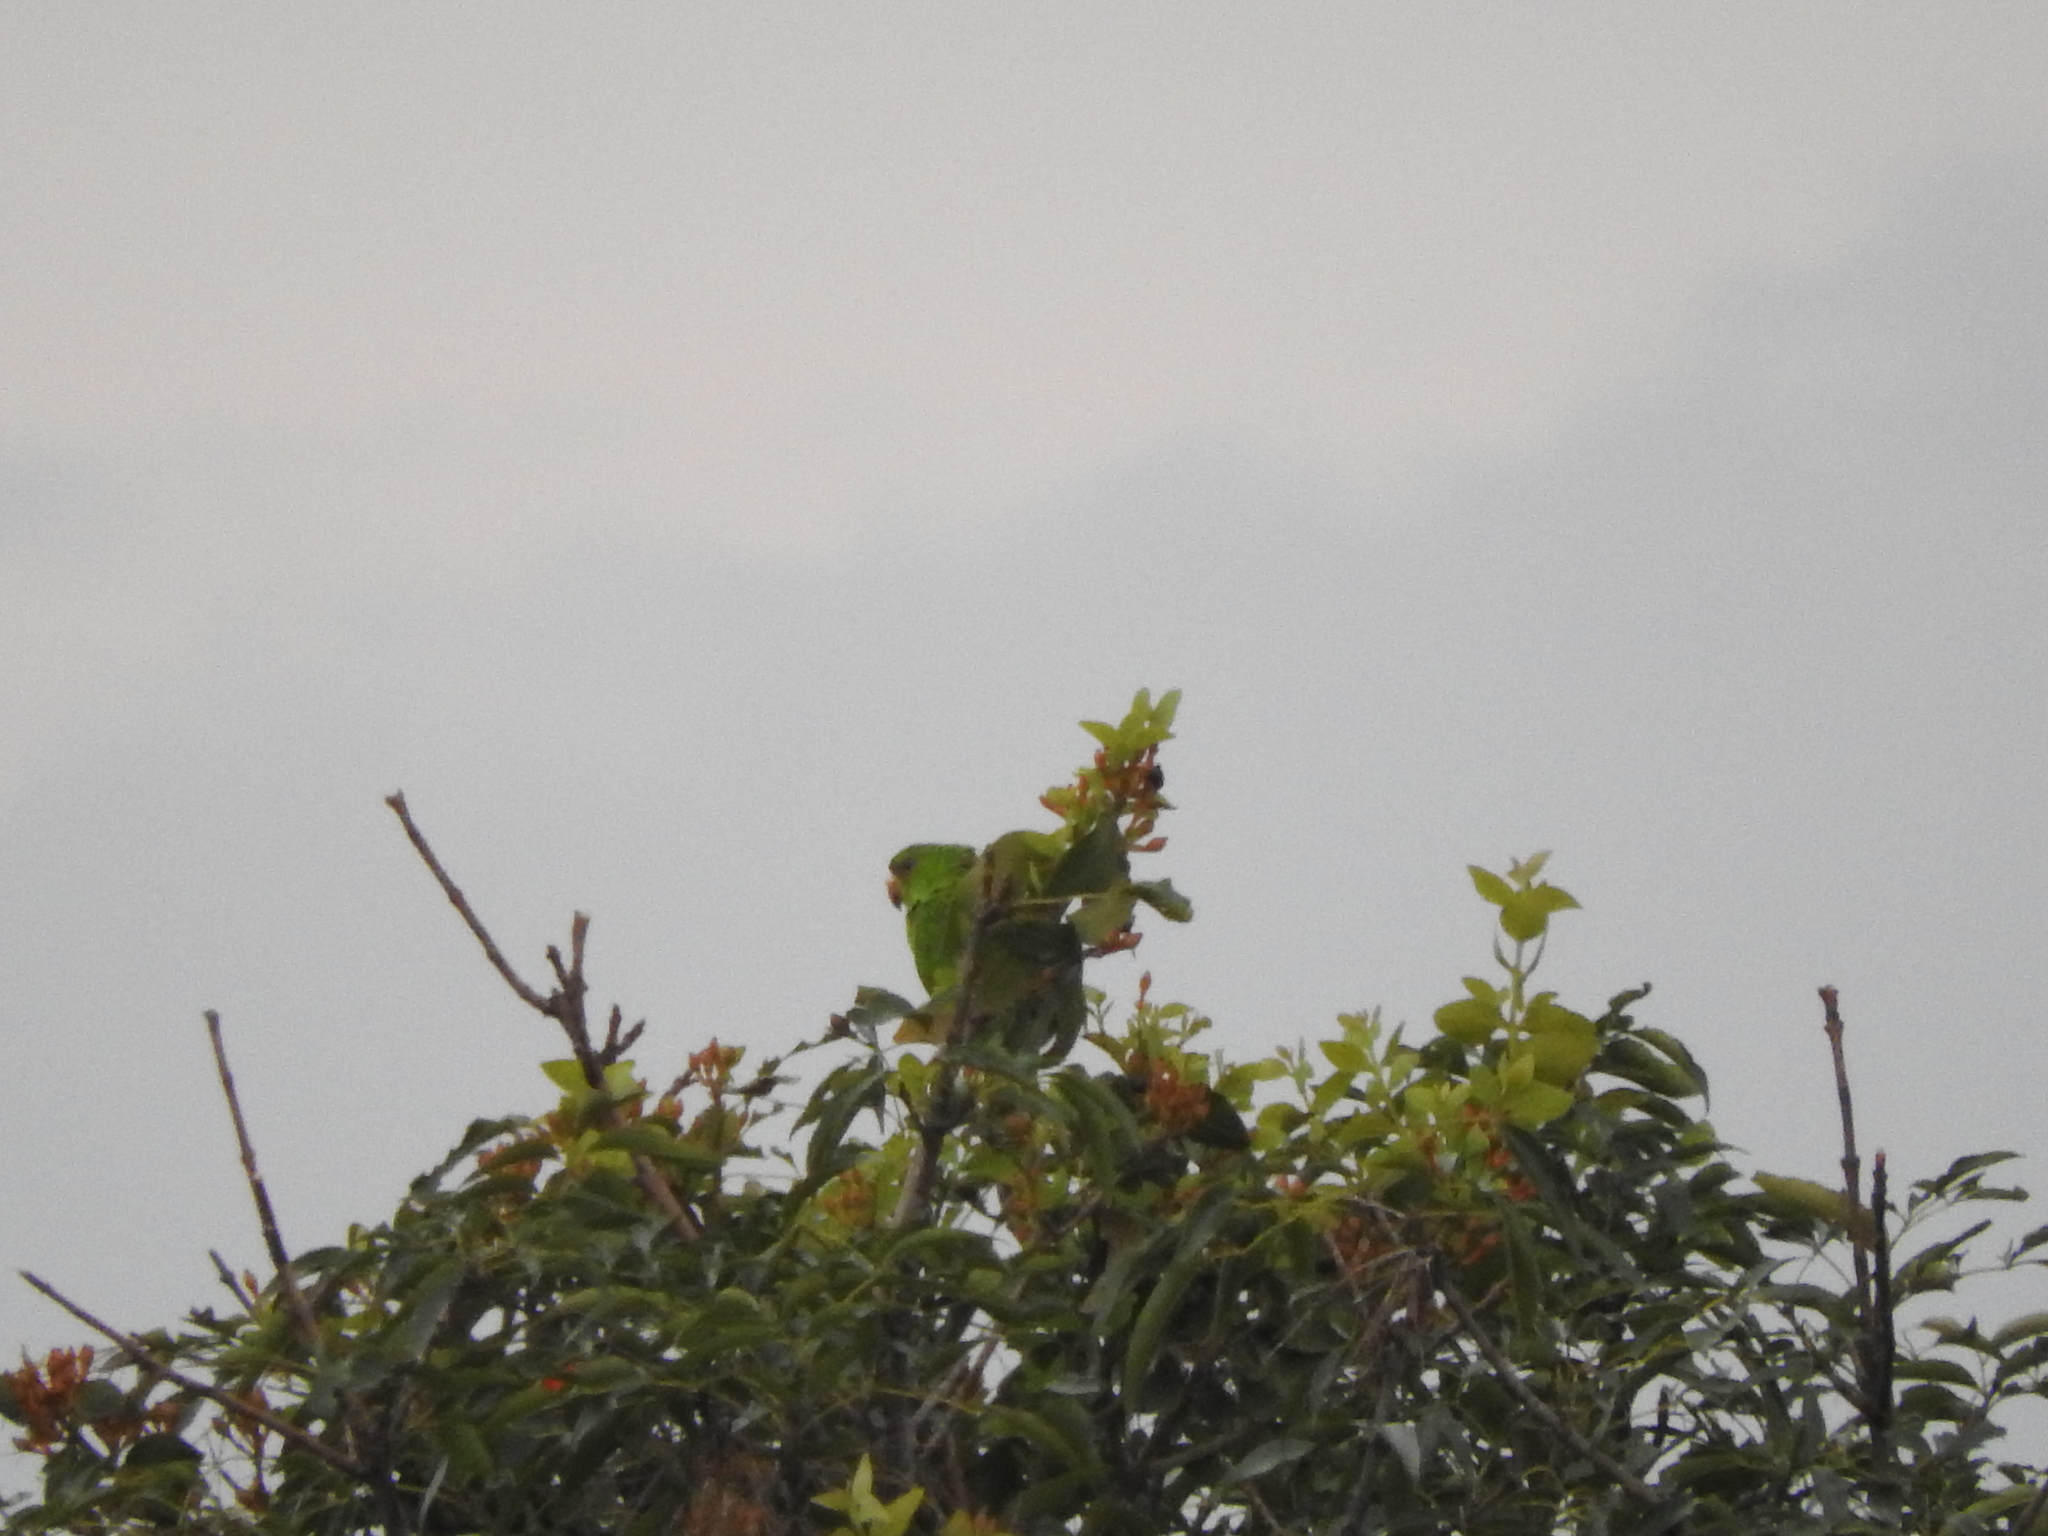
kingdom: Animalia
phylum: Chordata
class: Aves
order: Psittaciformes
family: Psittacidae
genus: Aratinga
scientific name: Aratinga holochlora
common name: Green parakeet
